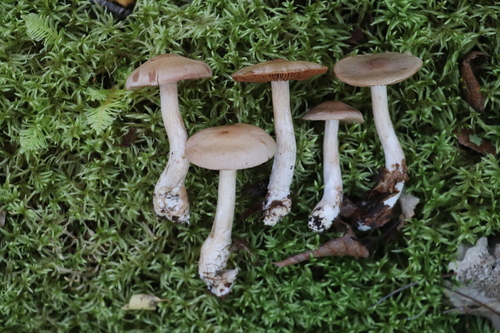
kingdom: Fungi
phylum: Basidiomycota
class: Agaricomycetes
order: Agaricales
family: Cortinariaceae
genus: Cortinarius
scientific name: Cortinarius
